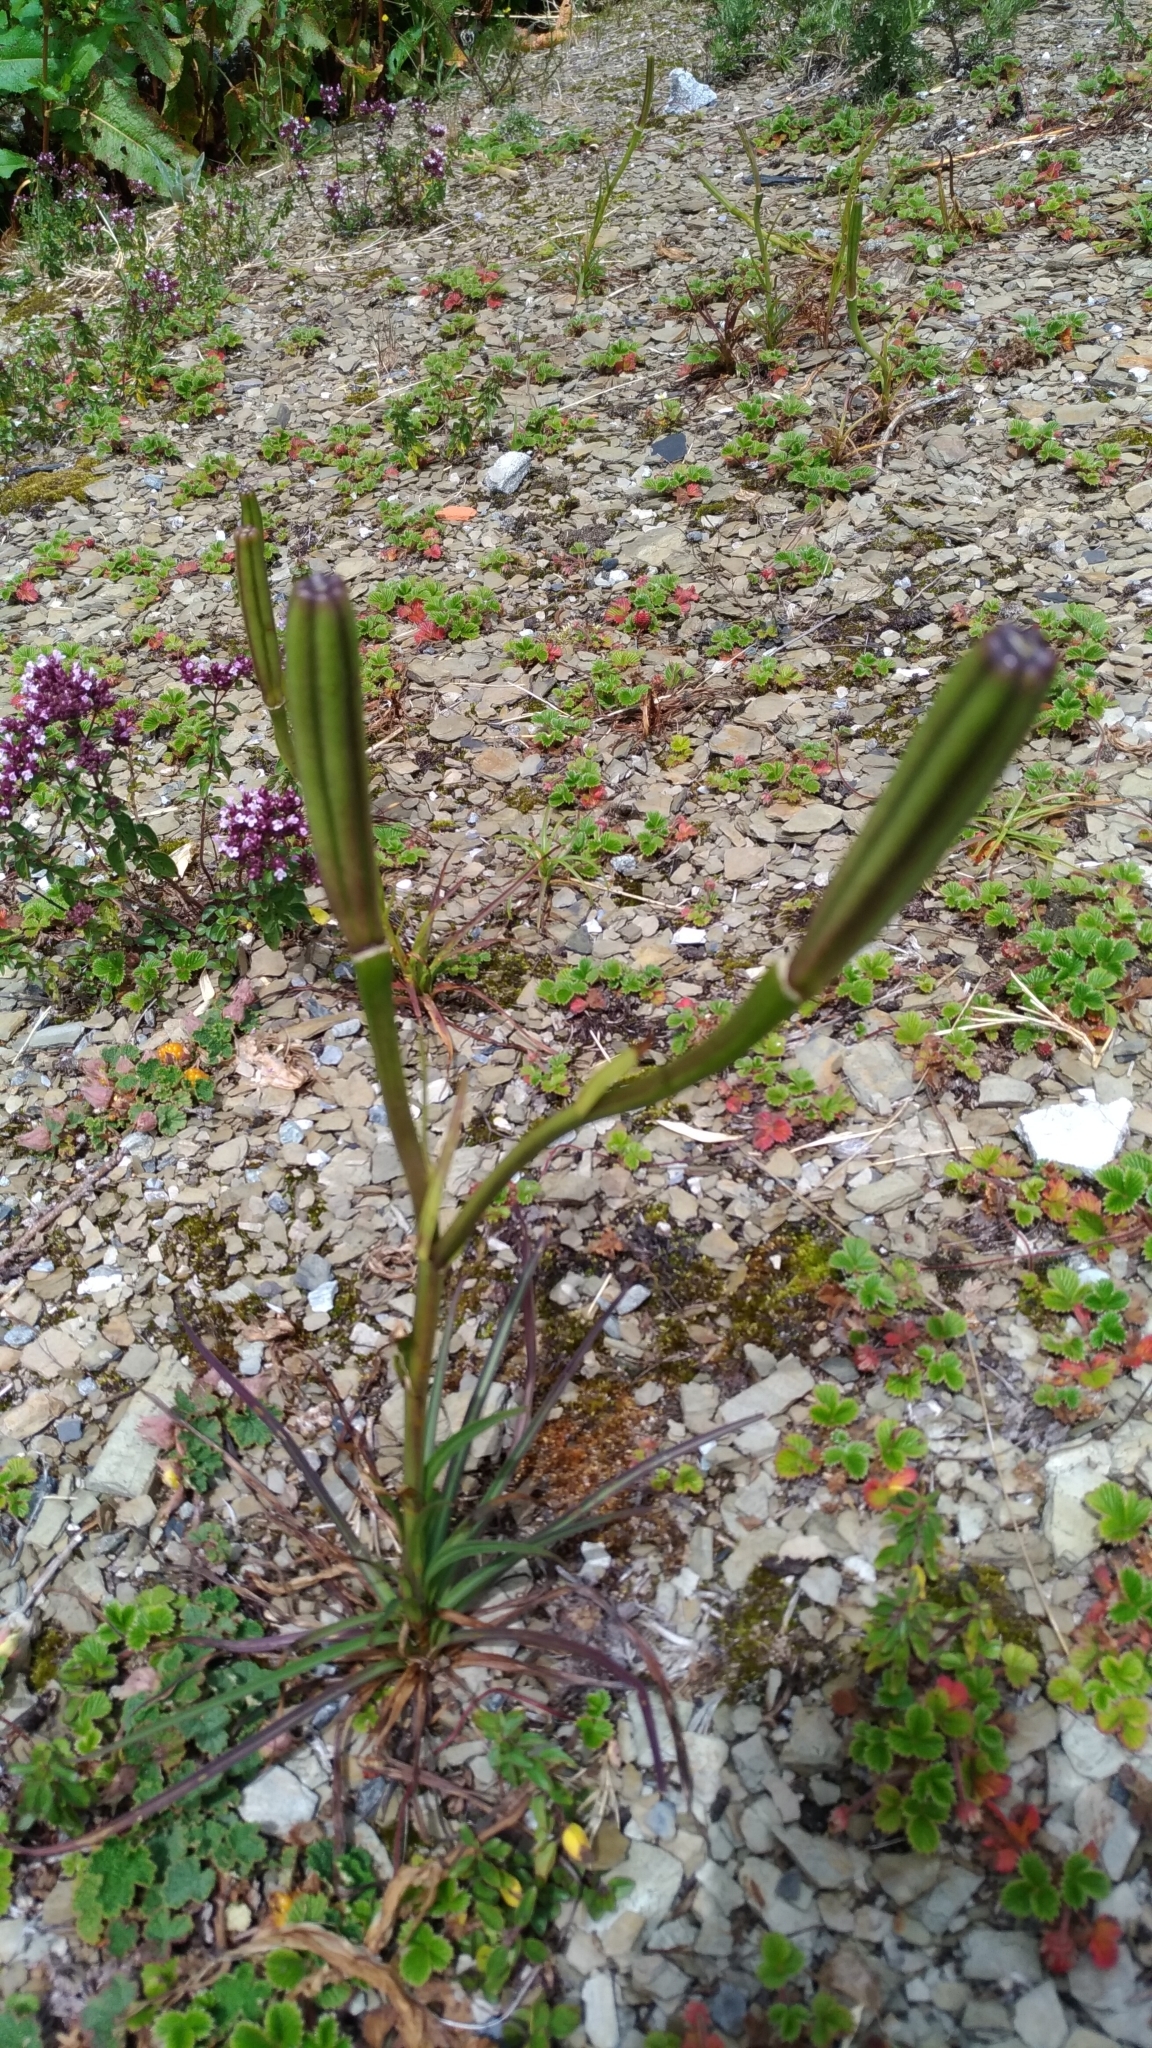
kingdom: Plantae
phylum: Tracheophyta
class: Liliopsida
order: Liliales
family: Liliaceae
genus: Lilium
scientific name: Lilium formosanum
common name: Formosa lily
